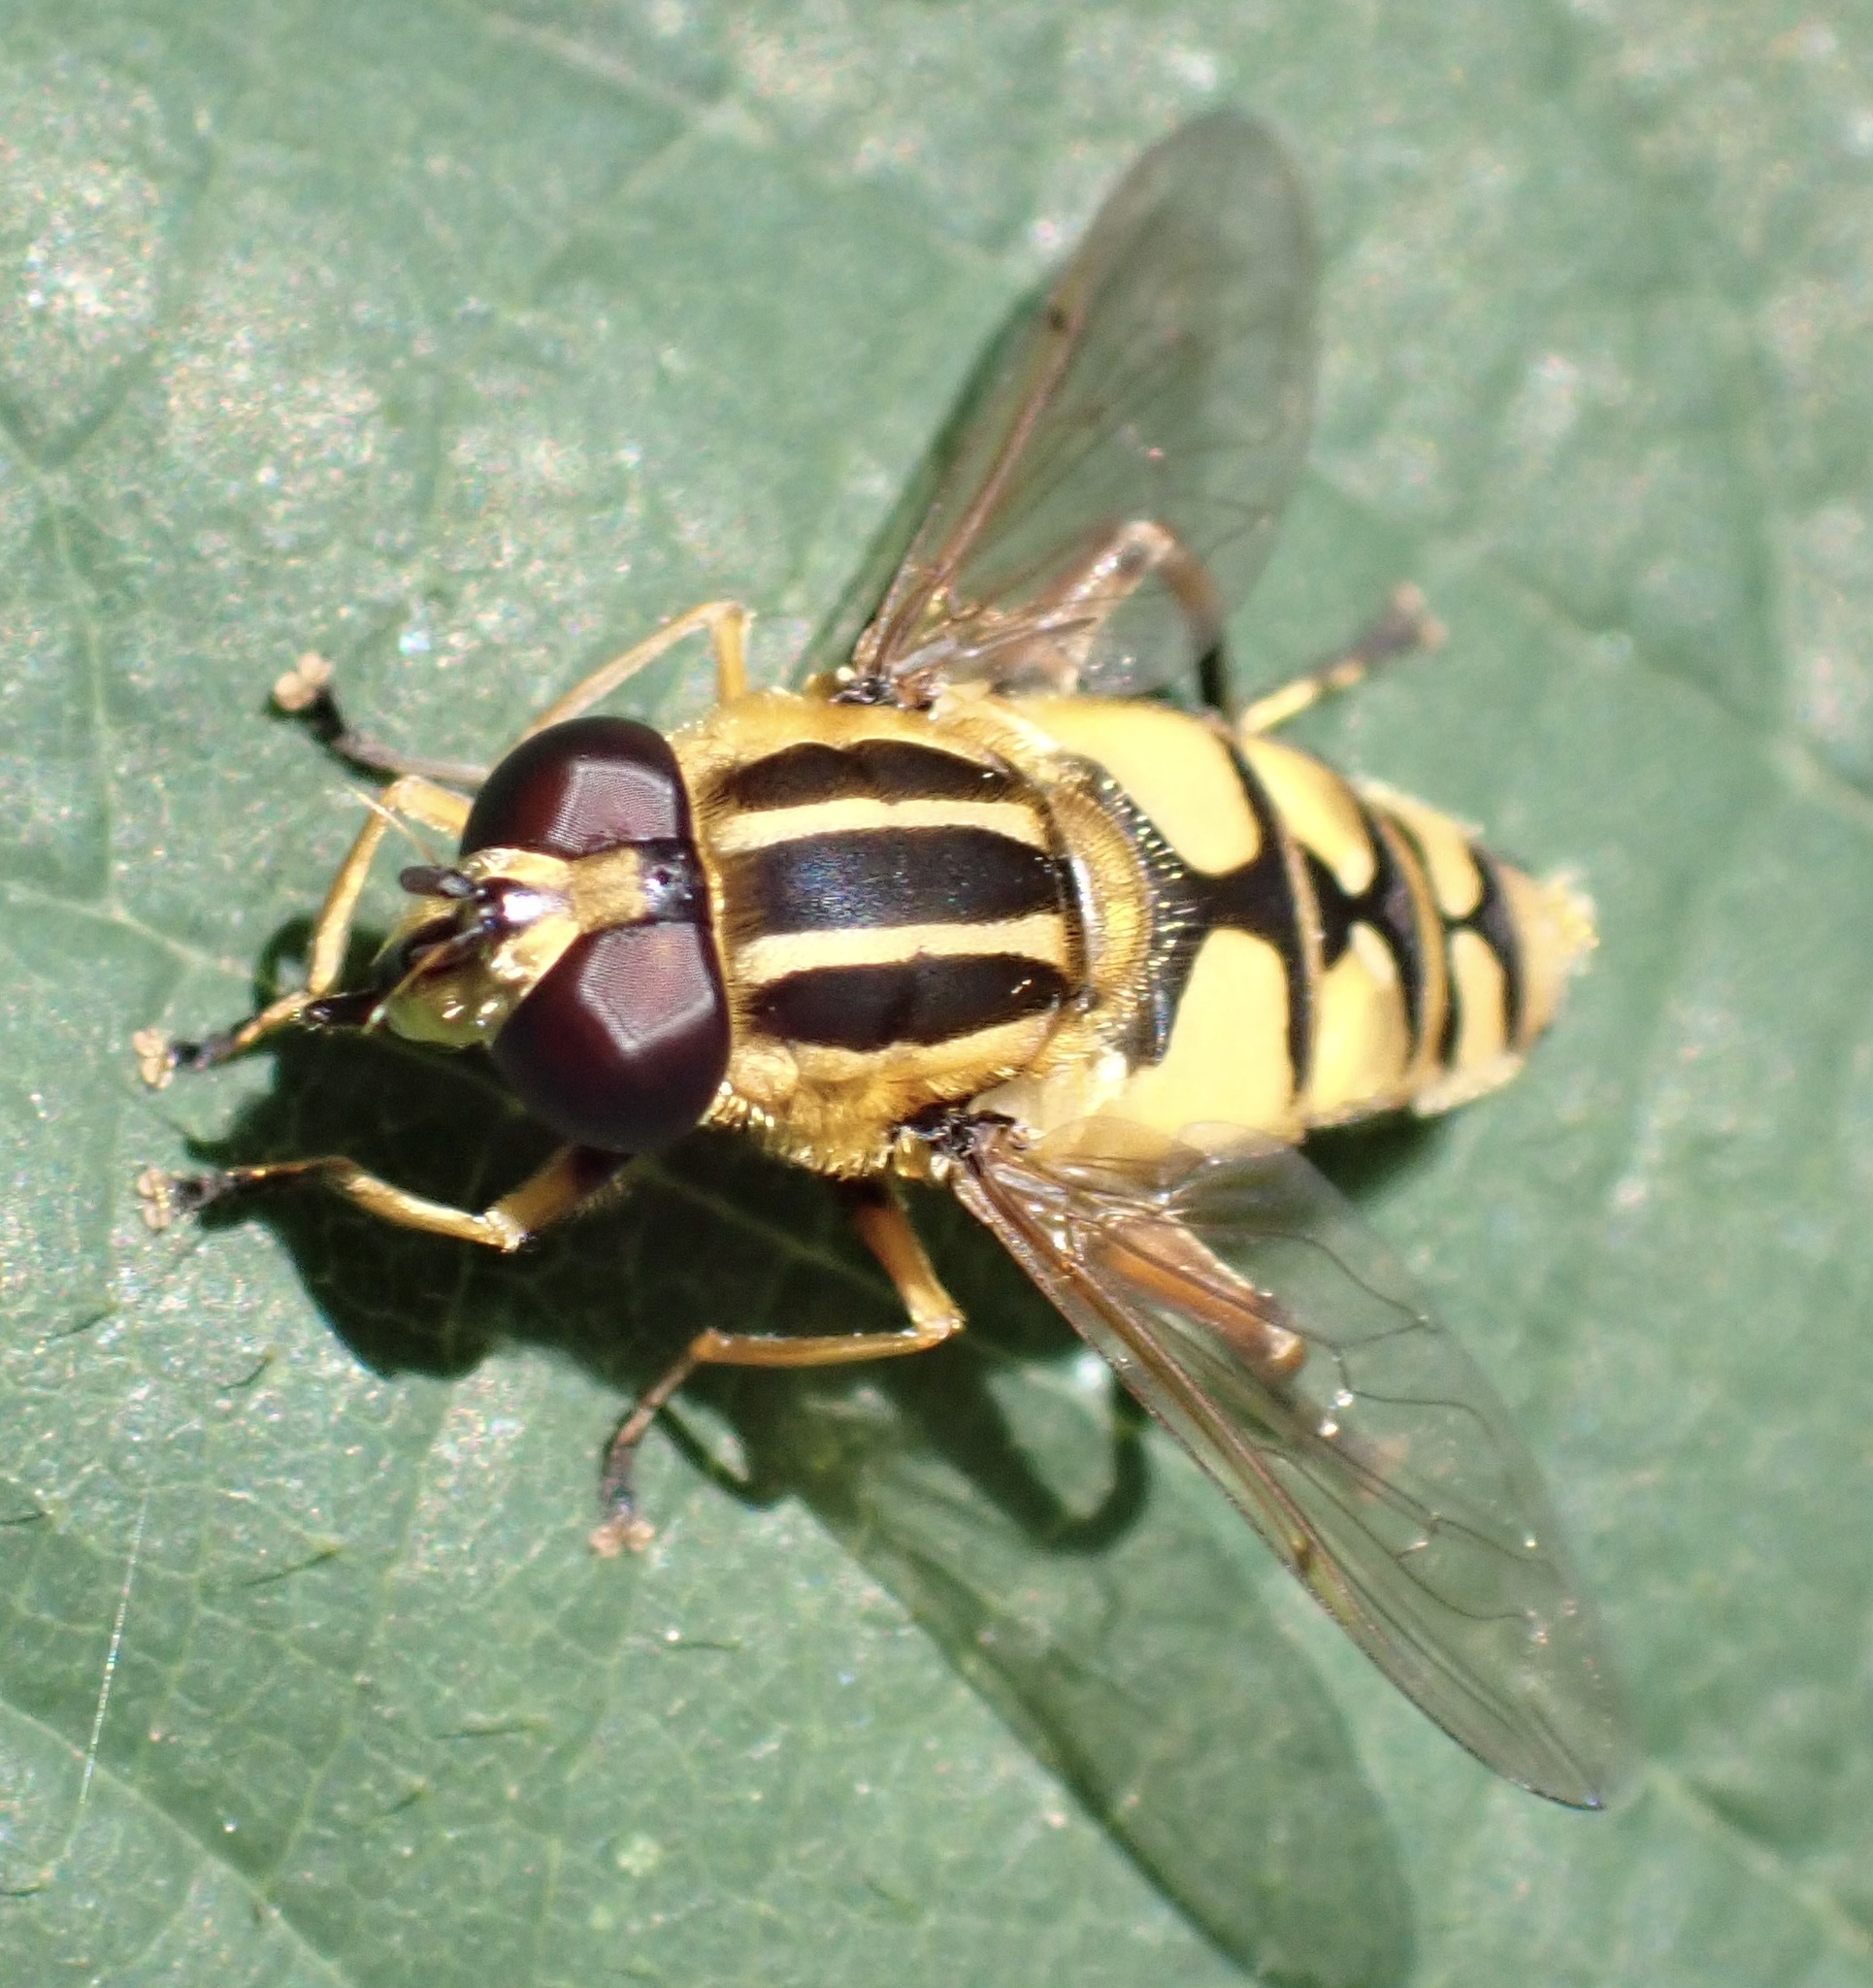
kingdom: Animalia
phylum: Arthropoda
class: Insecta
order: Diptera
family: Syrphidae
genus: Helophilus
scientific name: Helophilus pendulus
